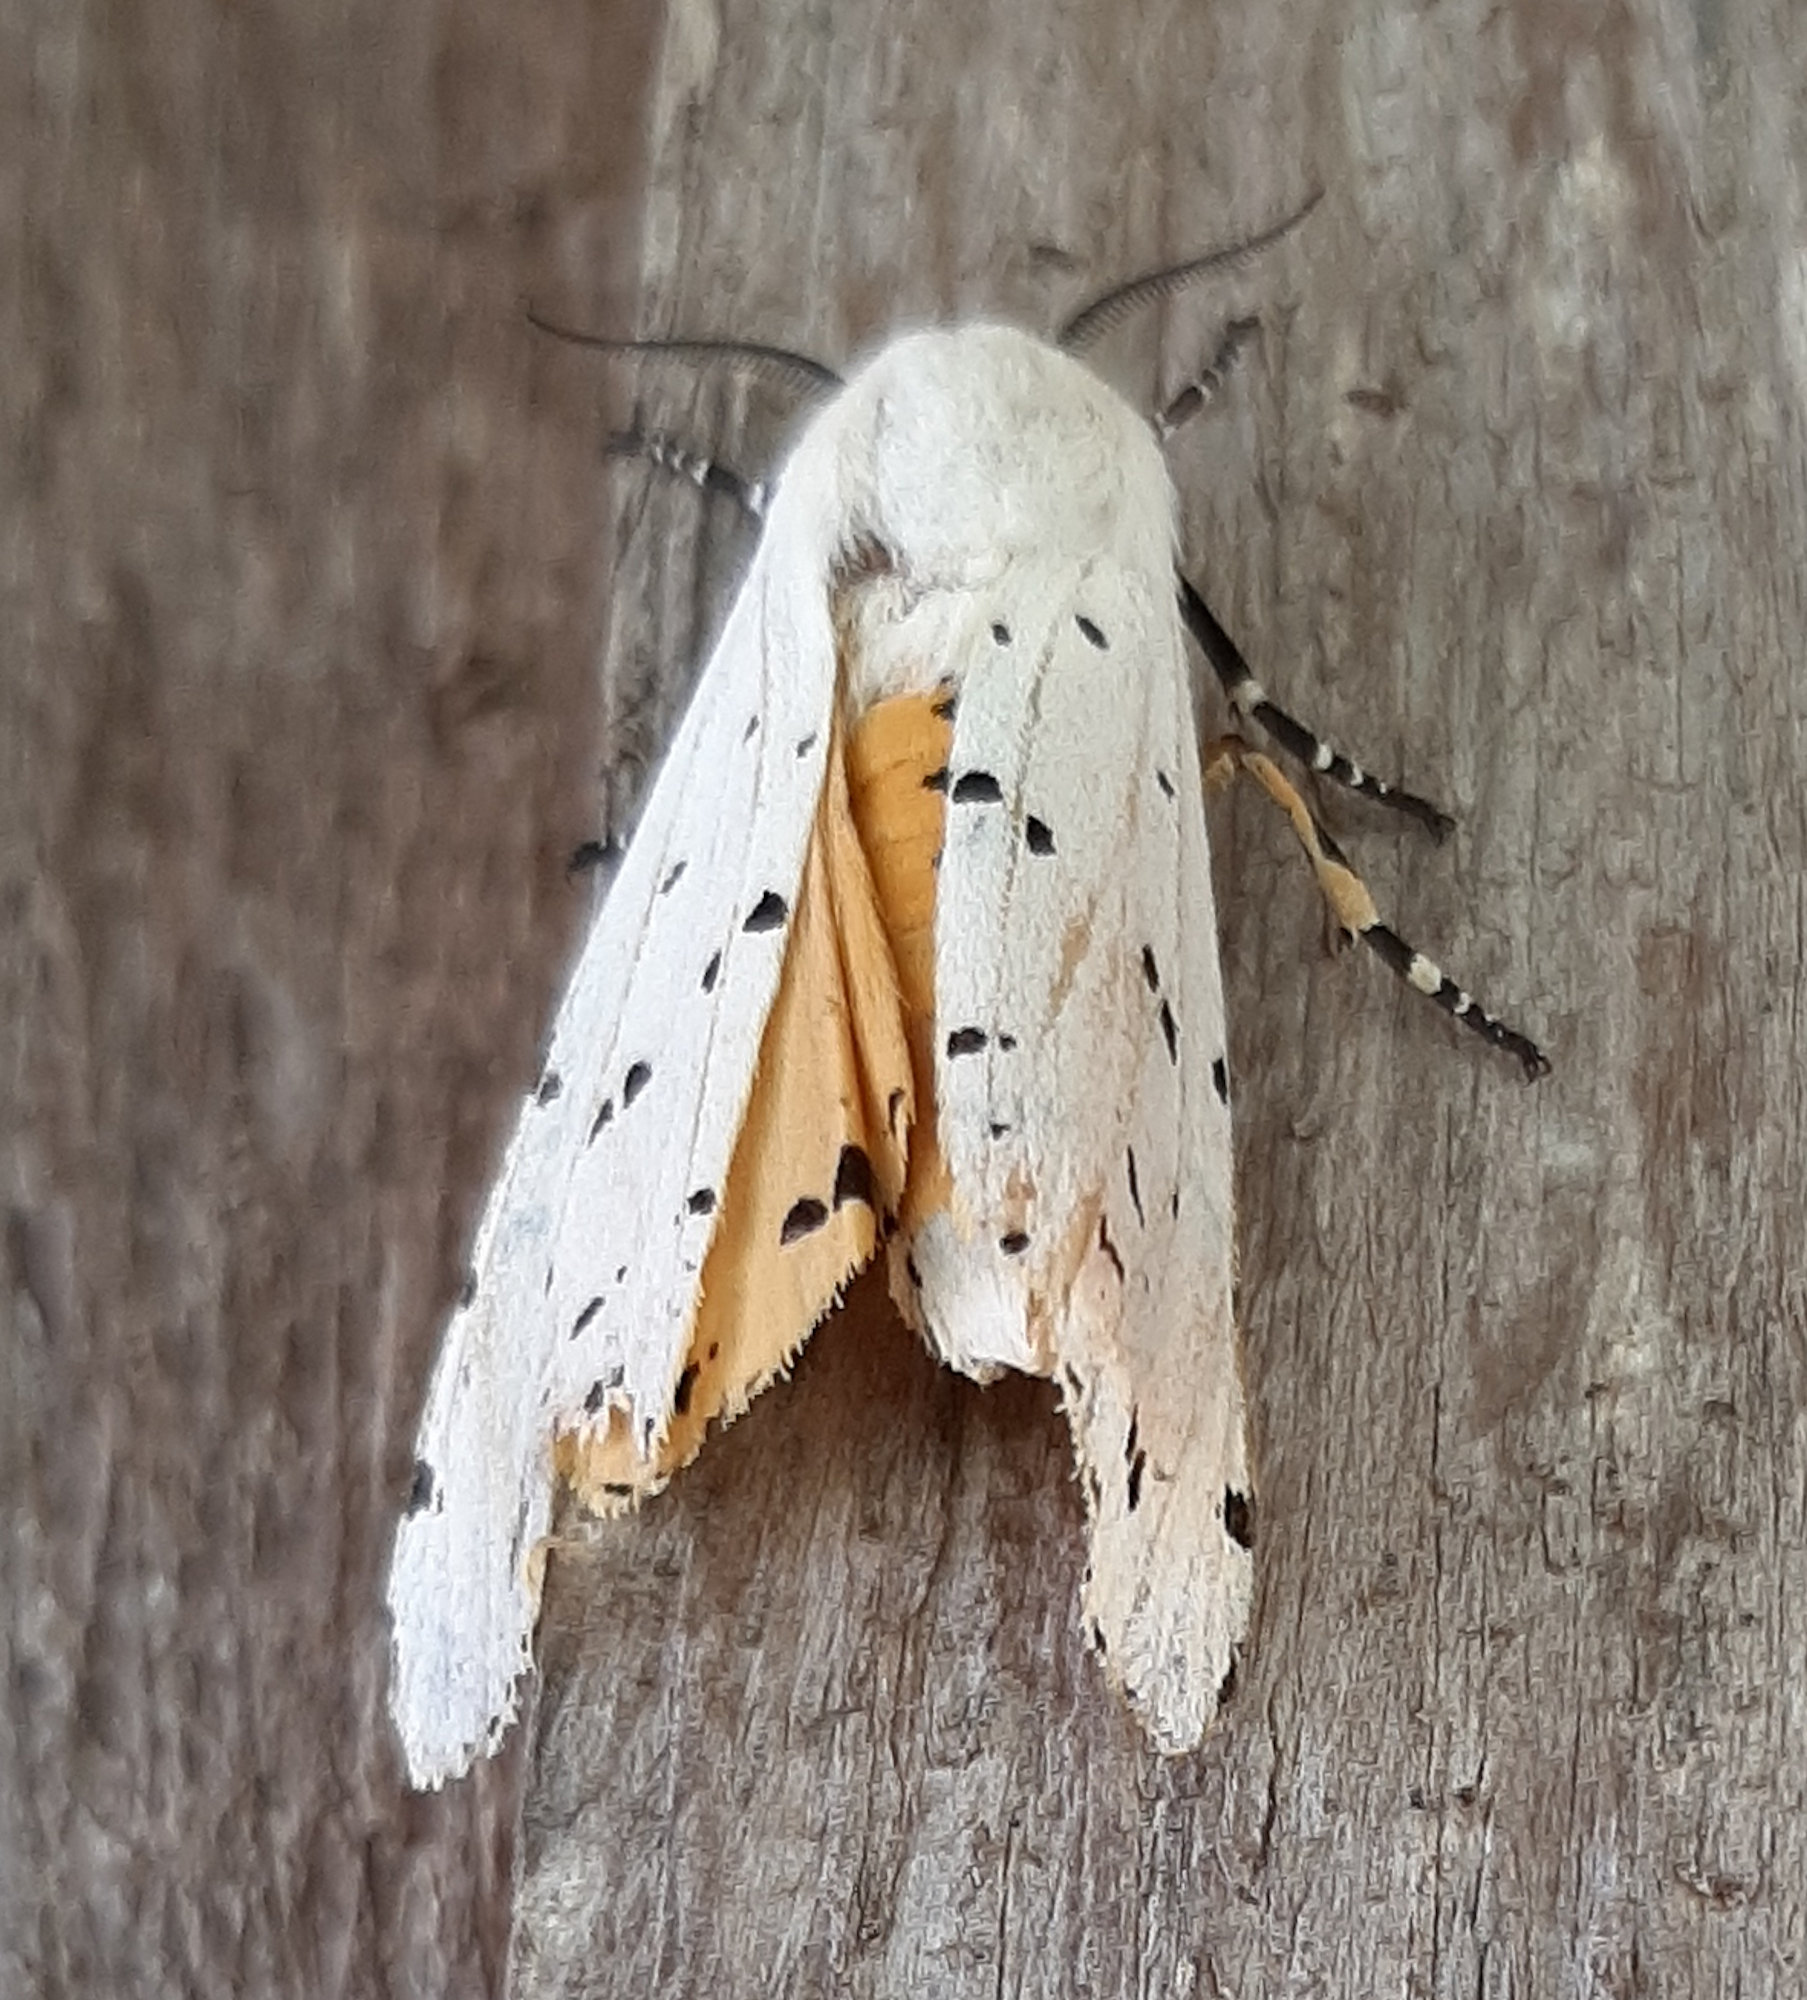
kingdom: Animalia
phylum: Arthropoda
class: Insecta
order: Lepidoptera
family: Erebidae
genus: Estigmene
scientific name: Estigmene acrea
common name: Salt marsh moth
